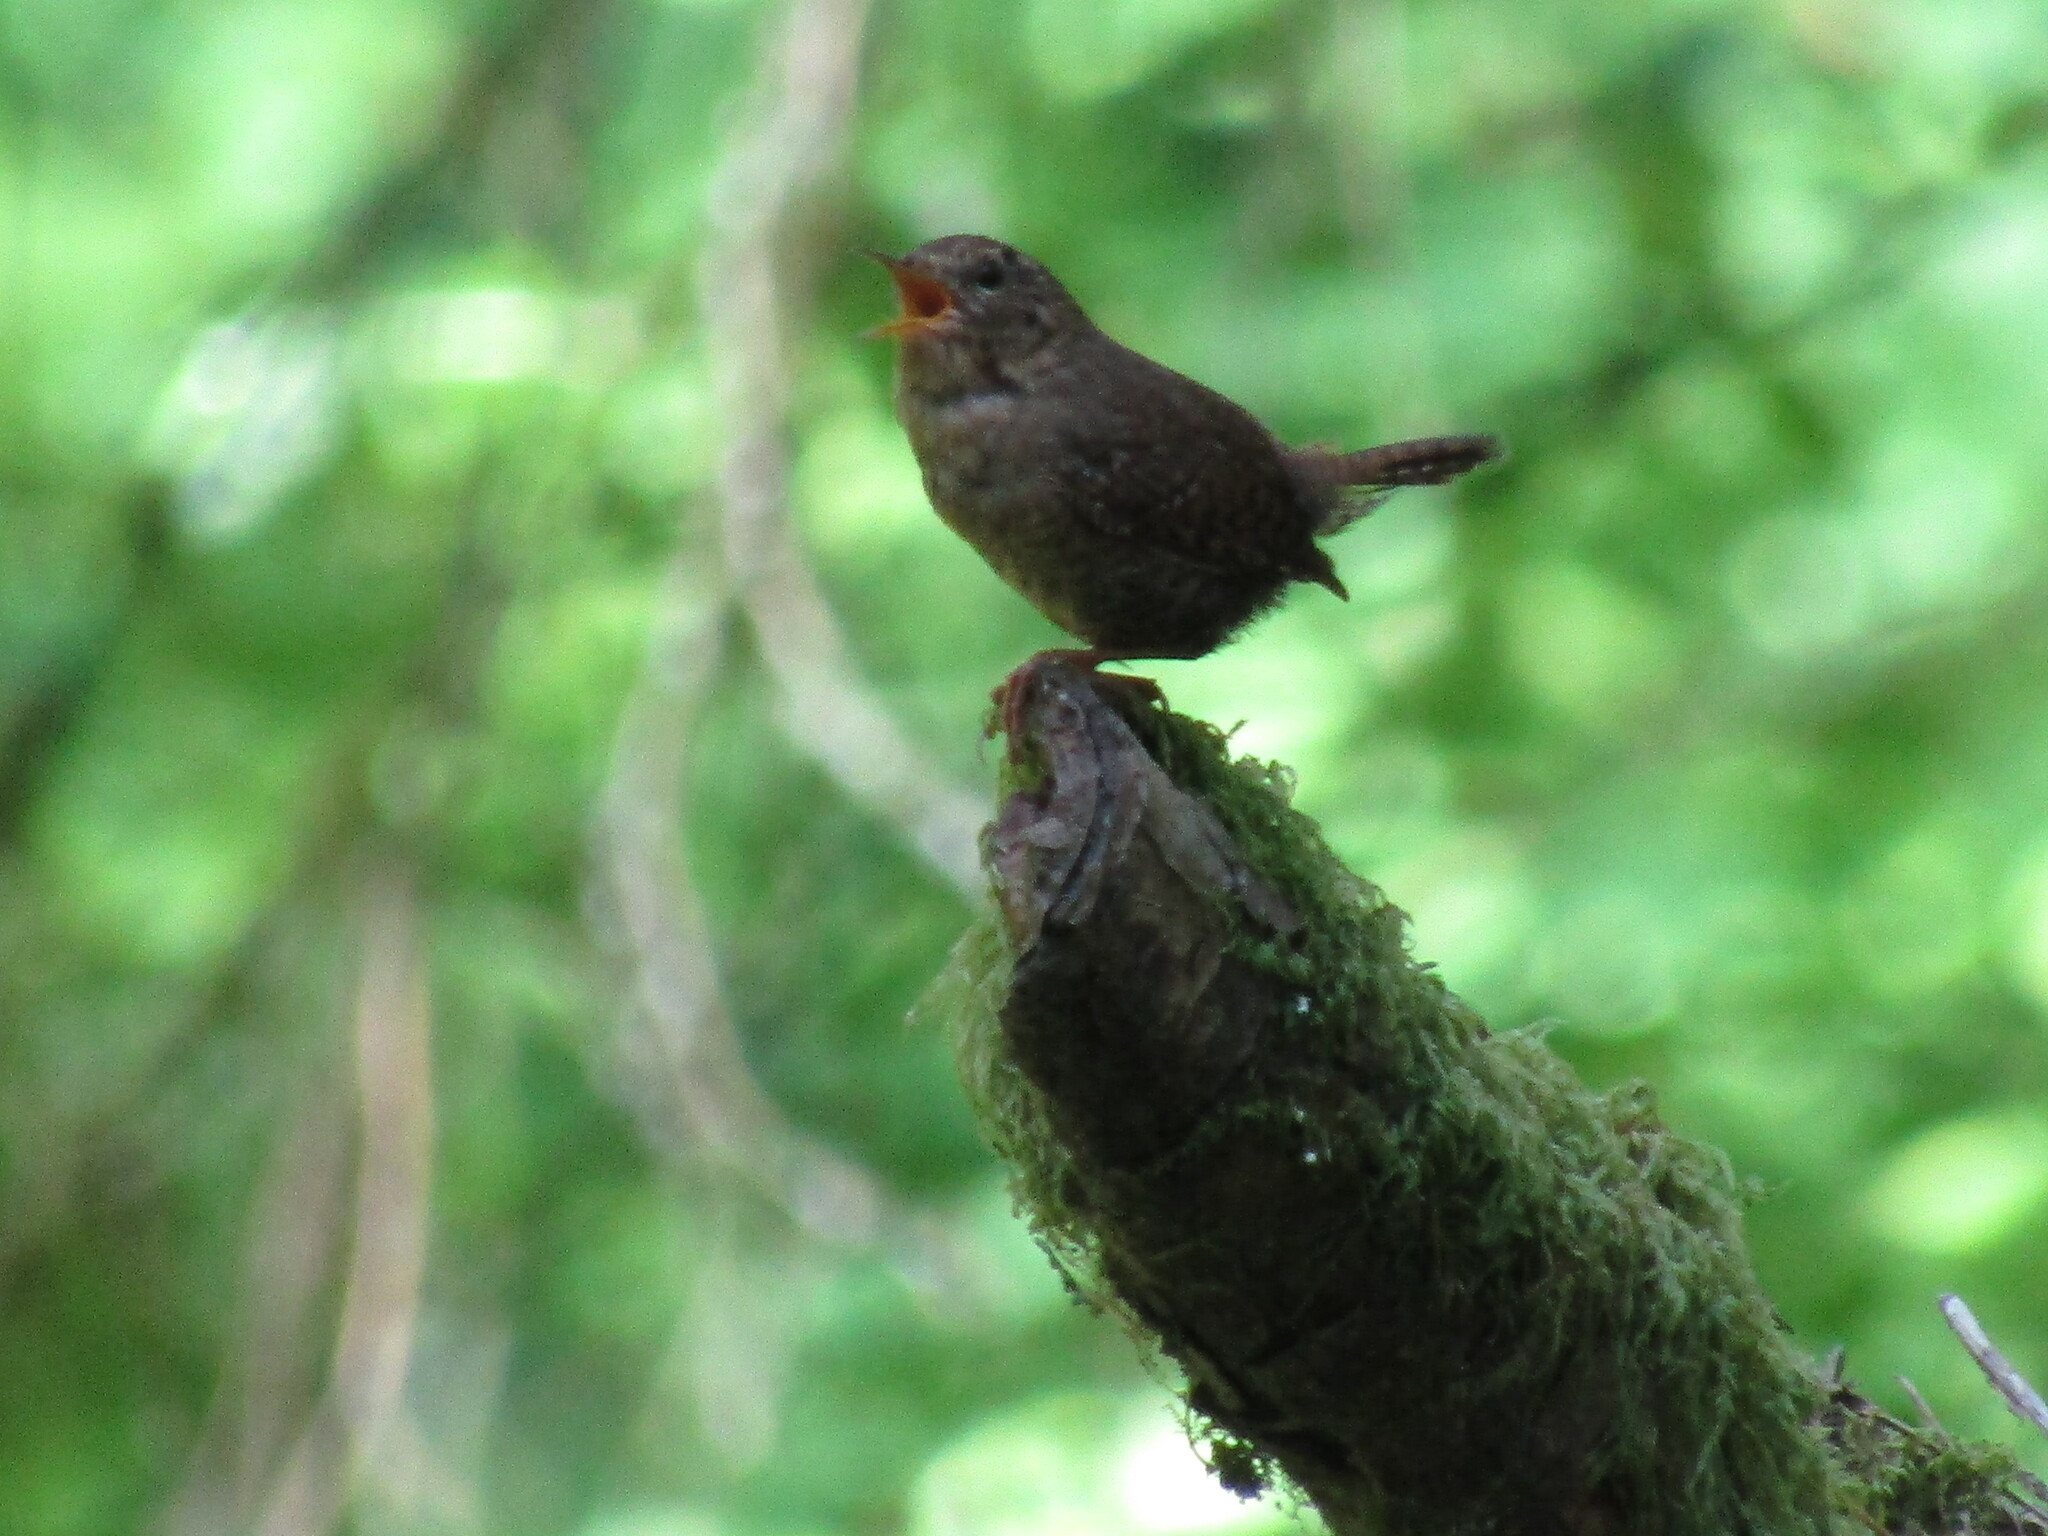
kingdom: Animalia
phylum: Chordata
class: Aves
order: Passeriformes
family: Troglodytidae
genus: Troglodytes
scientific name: Troglodytes pacificus
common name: Pacific wren
